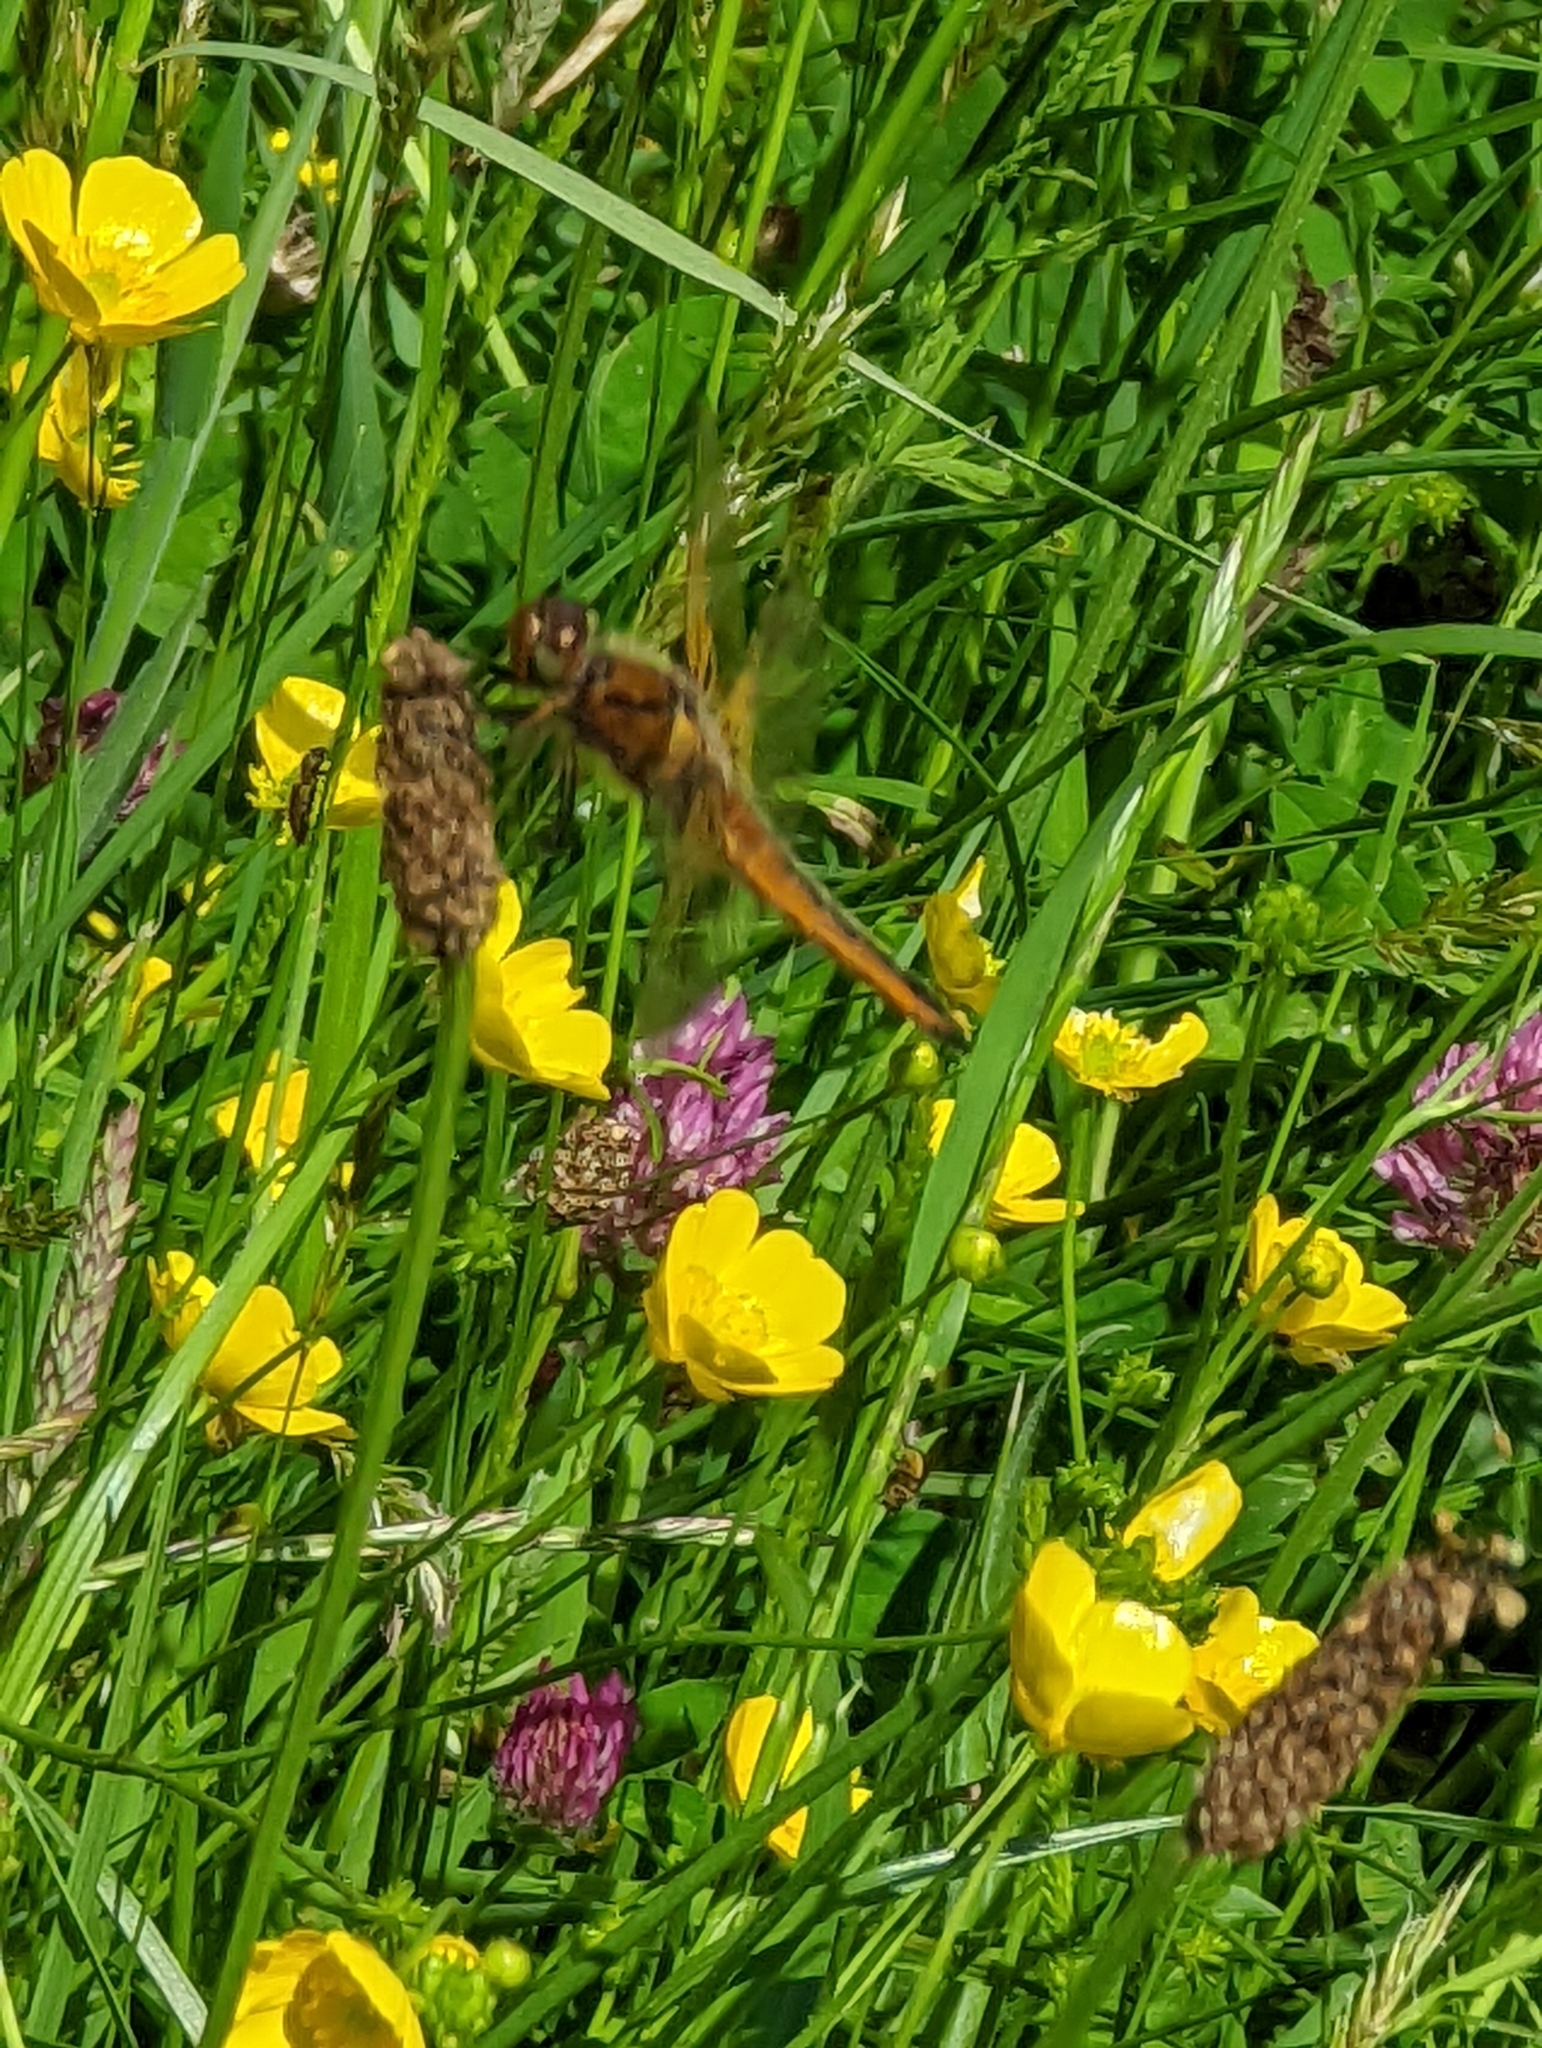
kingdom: Animalia
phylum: Arthropoda
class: Insecta
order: Odonata
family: Libellulidae
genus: Libellula
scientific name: Libellula fulva
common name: Blue chaser
